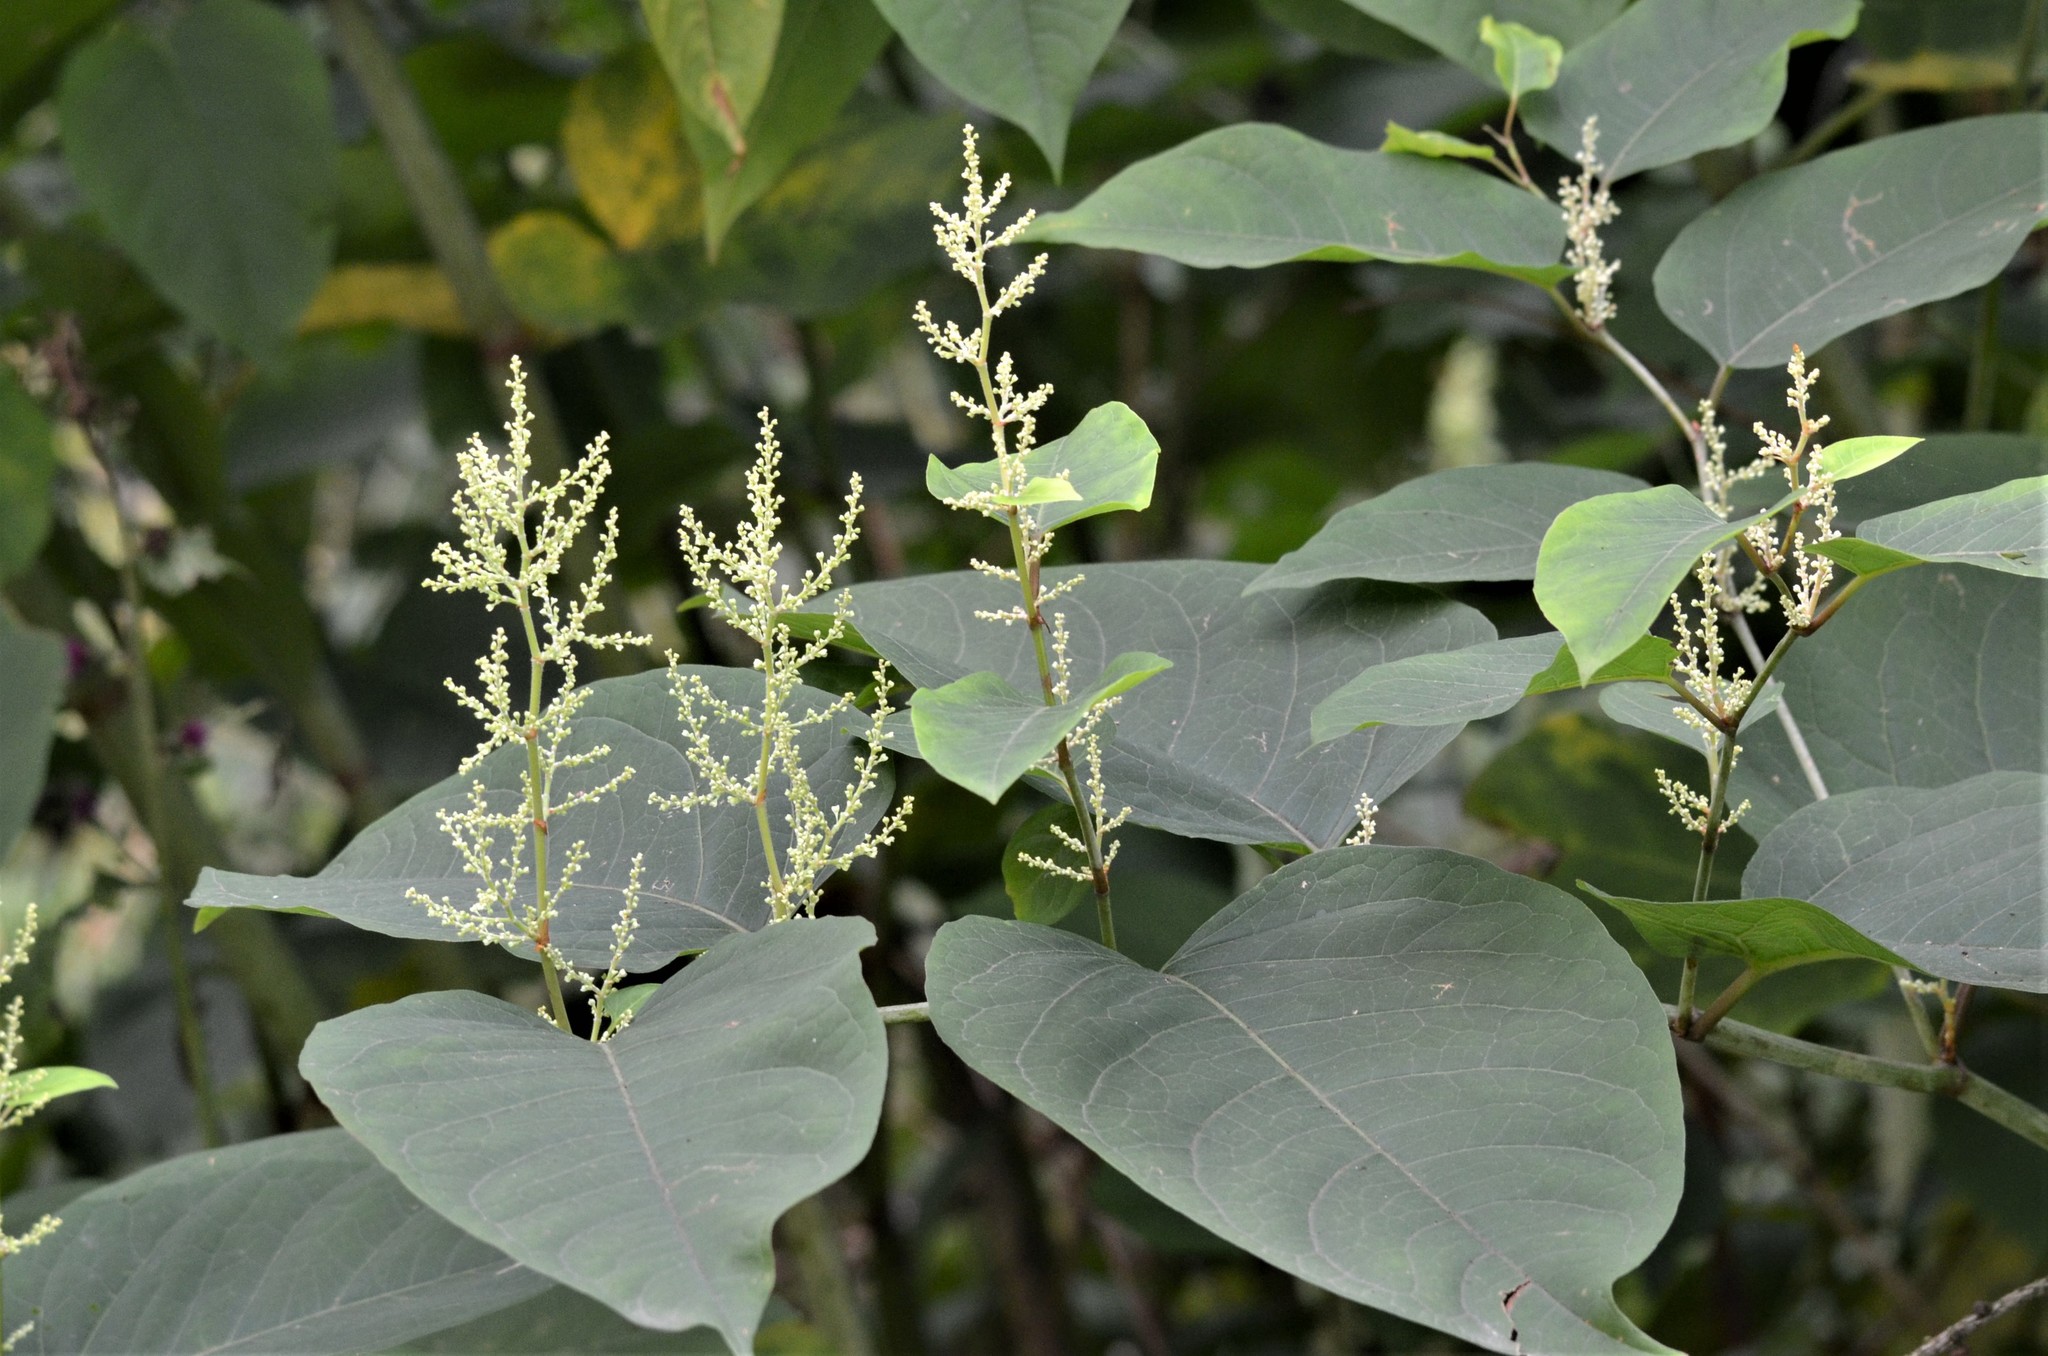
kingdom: Plantae
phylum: Tracheophyta
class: Magnoliopsida
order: Caryophyllales
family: Polygonaceae
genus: Reynoutria
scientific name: Reynoutria bohemica
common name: Bohemian knotweed
